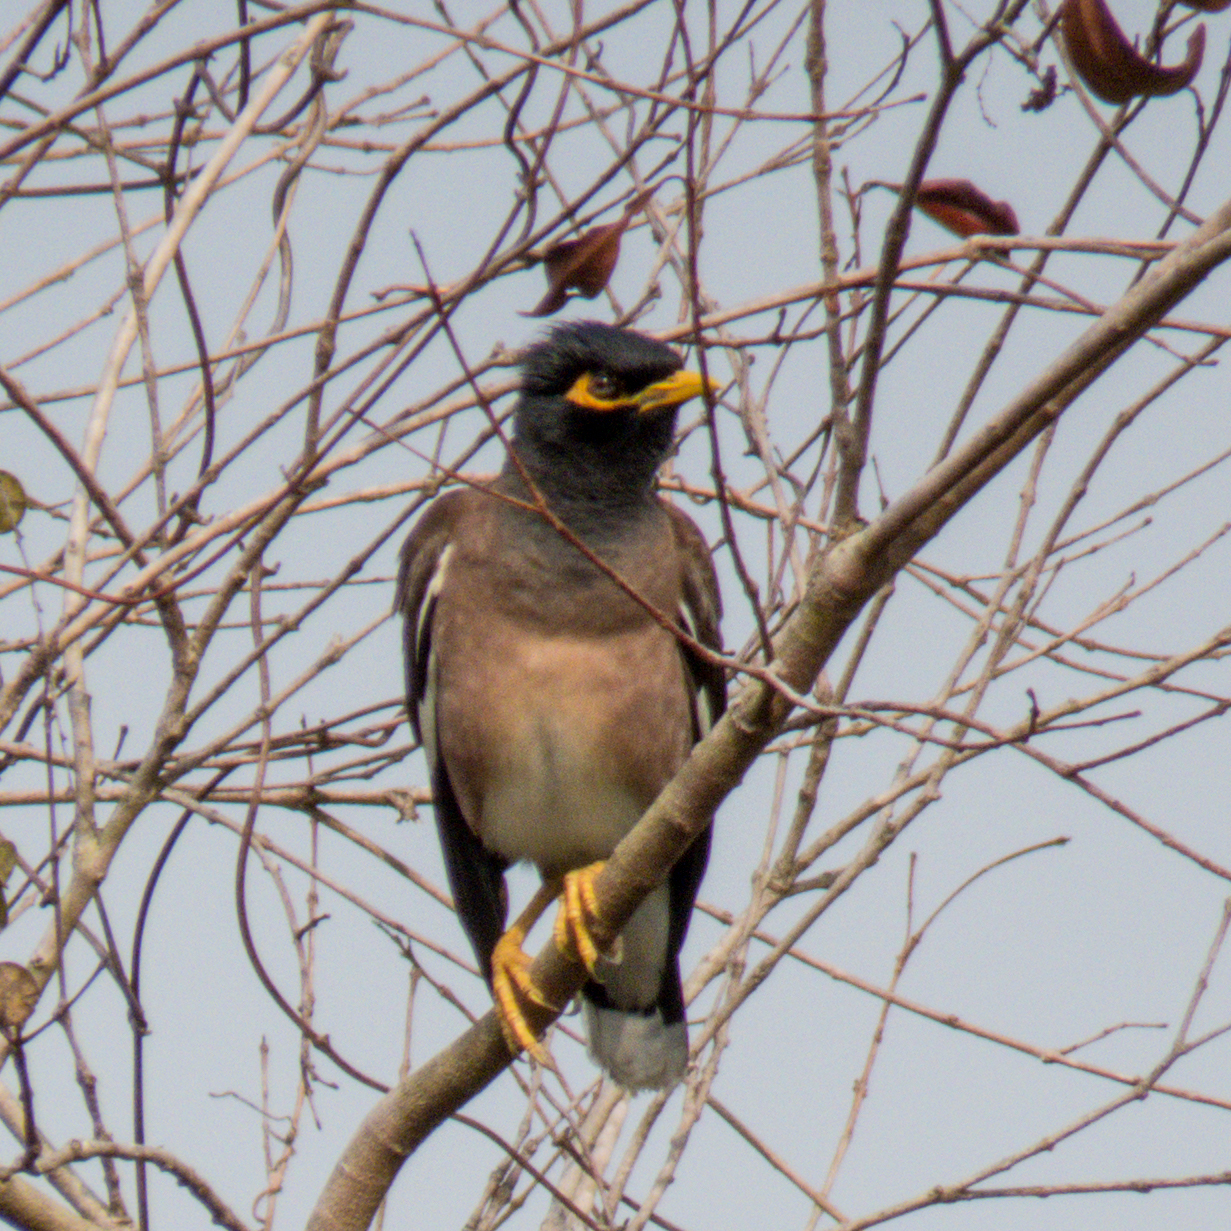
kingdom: Animalia
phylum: Chordata
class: Aves
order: Passeriformes
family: Sturnidae
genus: Acridotheres
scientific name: Acridotheres tristis
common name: Common myna
